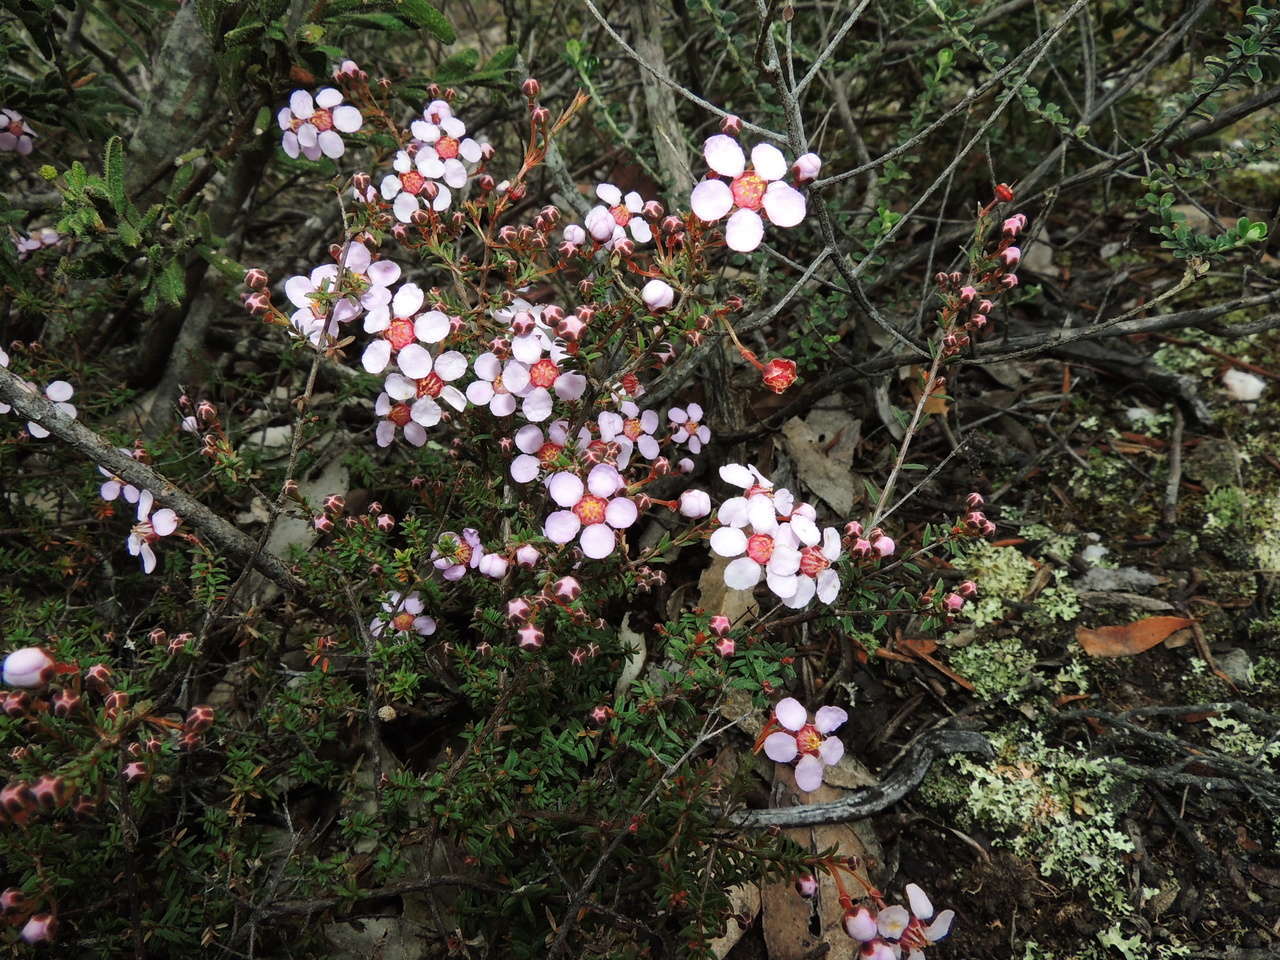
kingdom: Plantae
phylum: Tracheophyta
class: Magnoliopsida
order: Myrtales
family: Myrtaceae
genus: Euryomyrtus
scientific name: Euryomyrtus ramosissima
